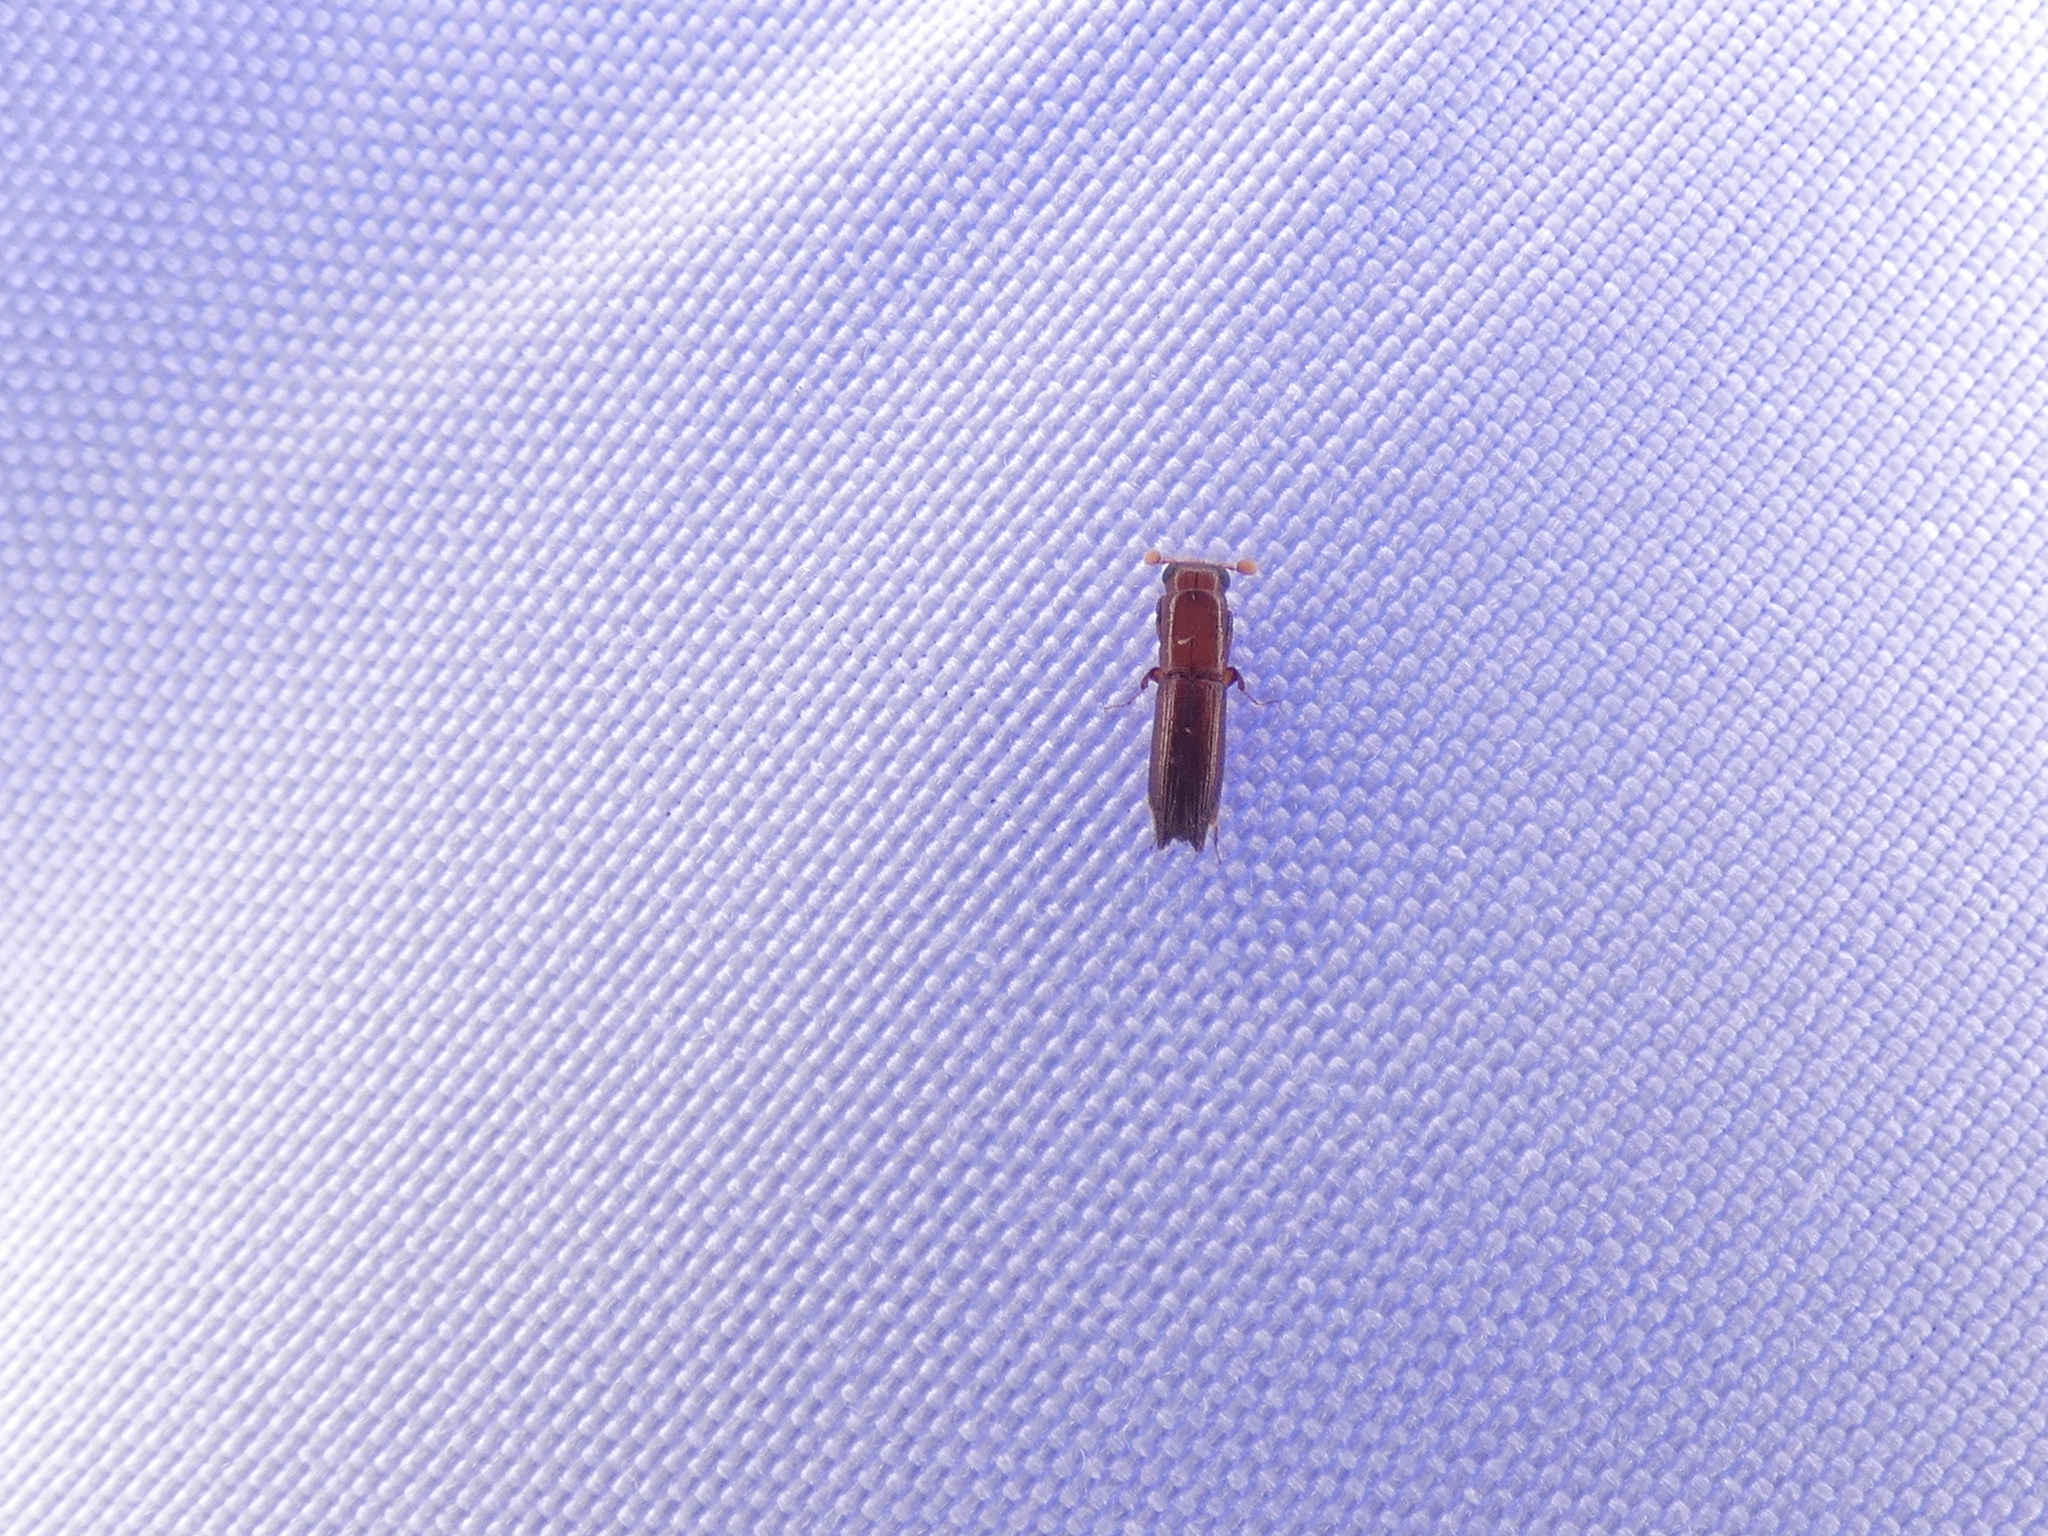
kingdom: Animalia
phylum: Arthropoda
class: Insecta
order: Coleoptera
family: Curculionidae
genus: Euplatypus
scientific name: Euplatypus compositus
